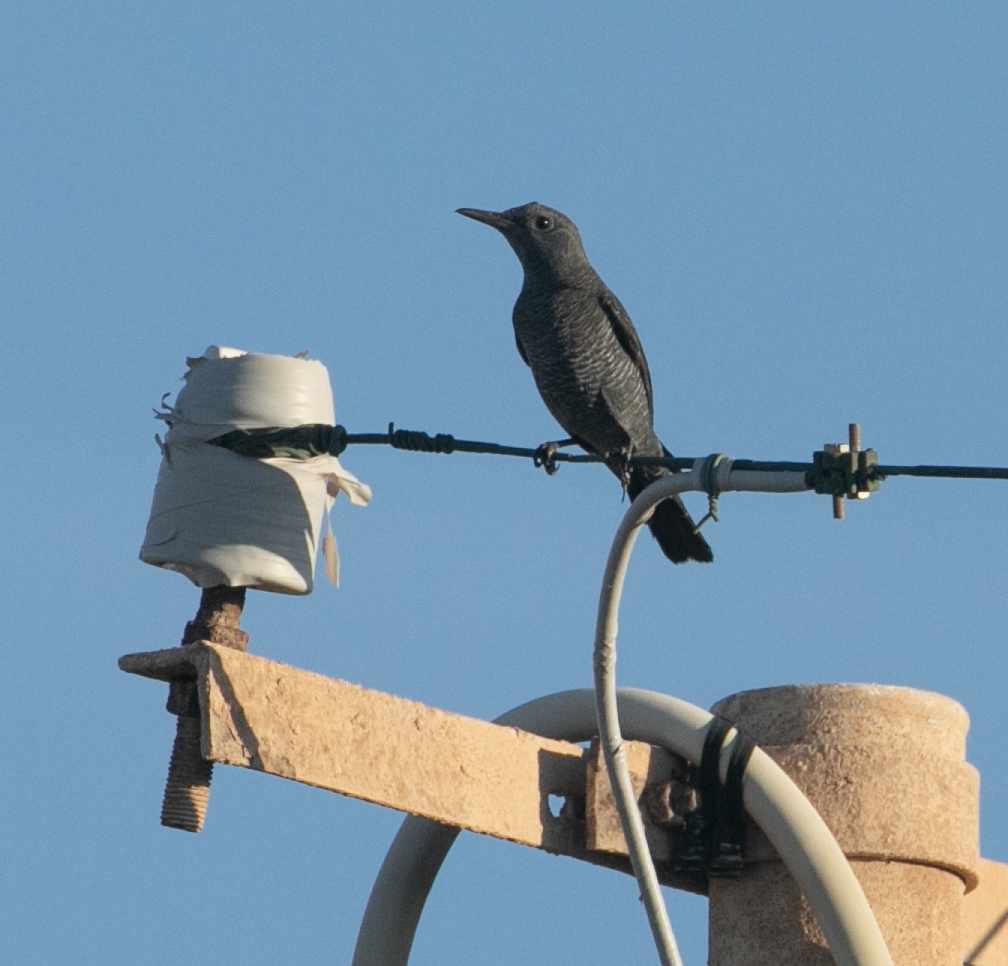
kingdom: Animalia
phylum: Chordata
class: Aves
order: Passeriformes
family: Muscicapidae
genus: Monticola
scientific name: Monticola solitarius
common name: Blue rock thrush
